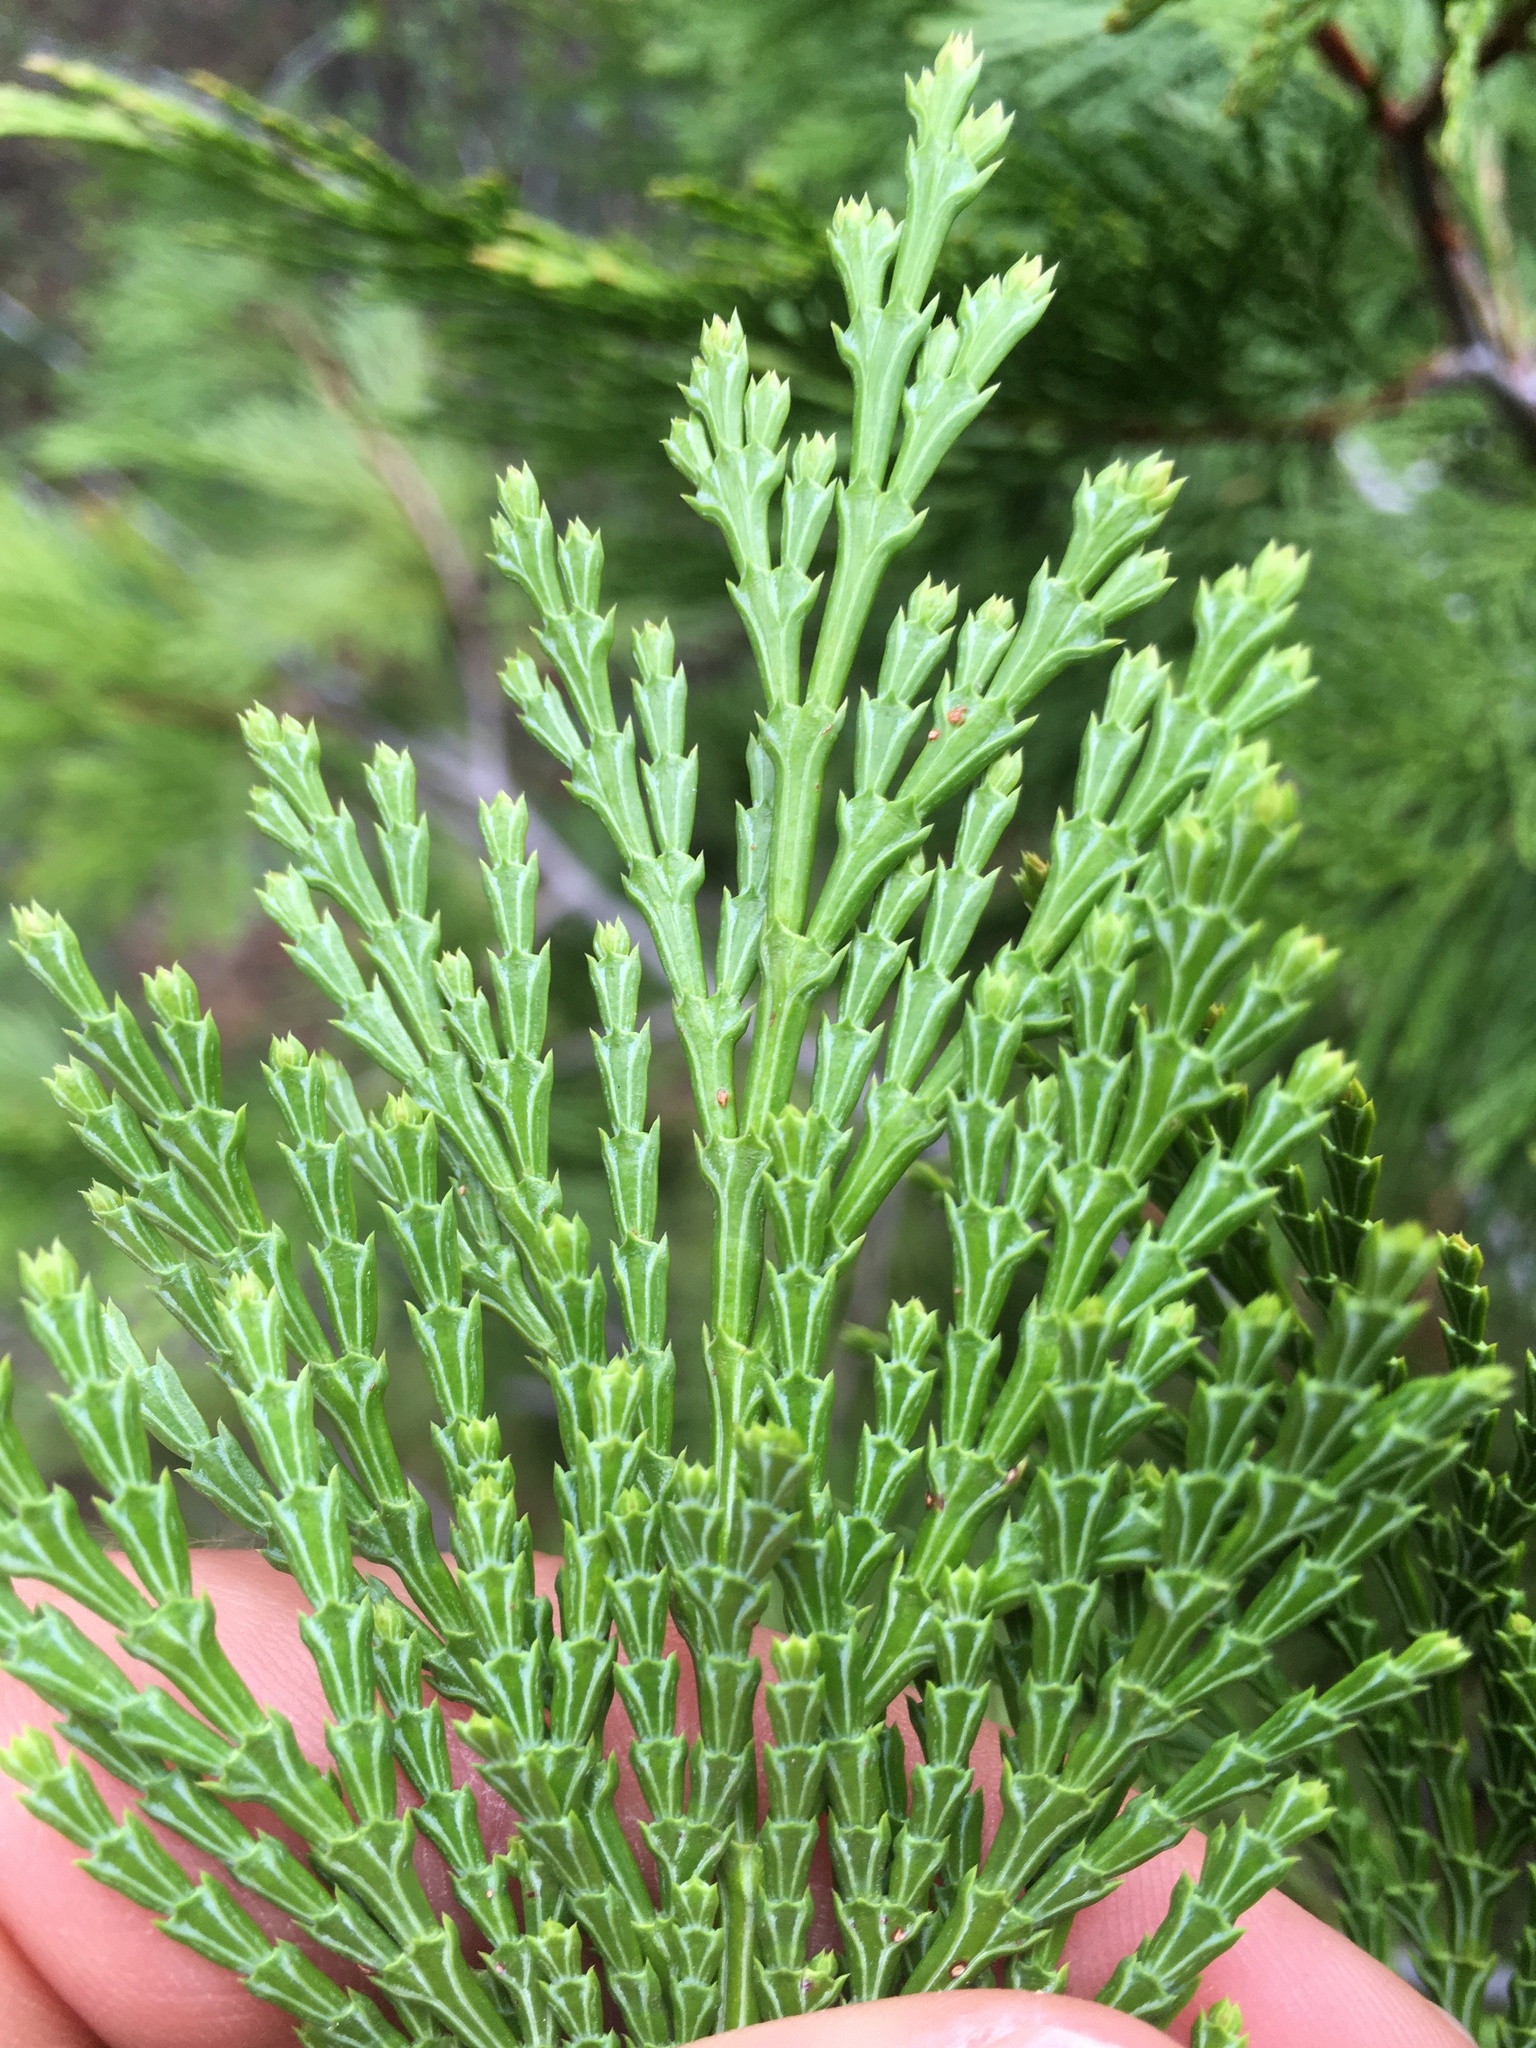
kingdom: Plantae
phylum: Tracheophyta
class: Pinopsida
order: Pinales
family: Cupressaceae
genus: Calocedrus
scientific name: Calocedrus decurrens
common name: Californian incense-cedar
